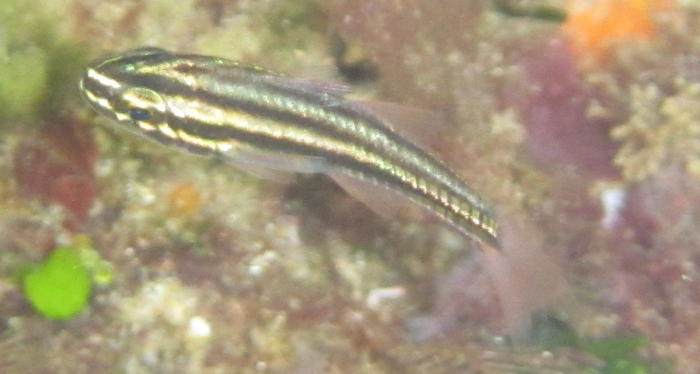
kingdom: Animalia
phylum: Chordata
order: Perciformes
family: Apogonidae
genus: Ostorhinchus
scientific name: Ostorhinchus angustatus
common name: Narrow-striped cardinalfish
